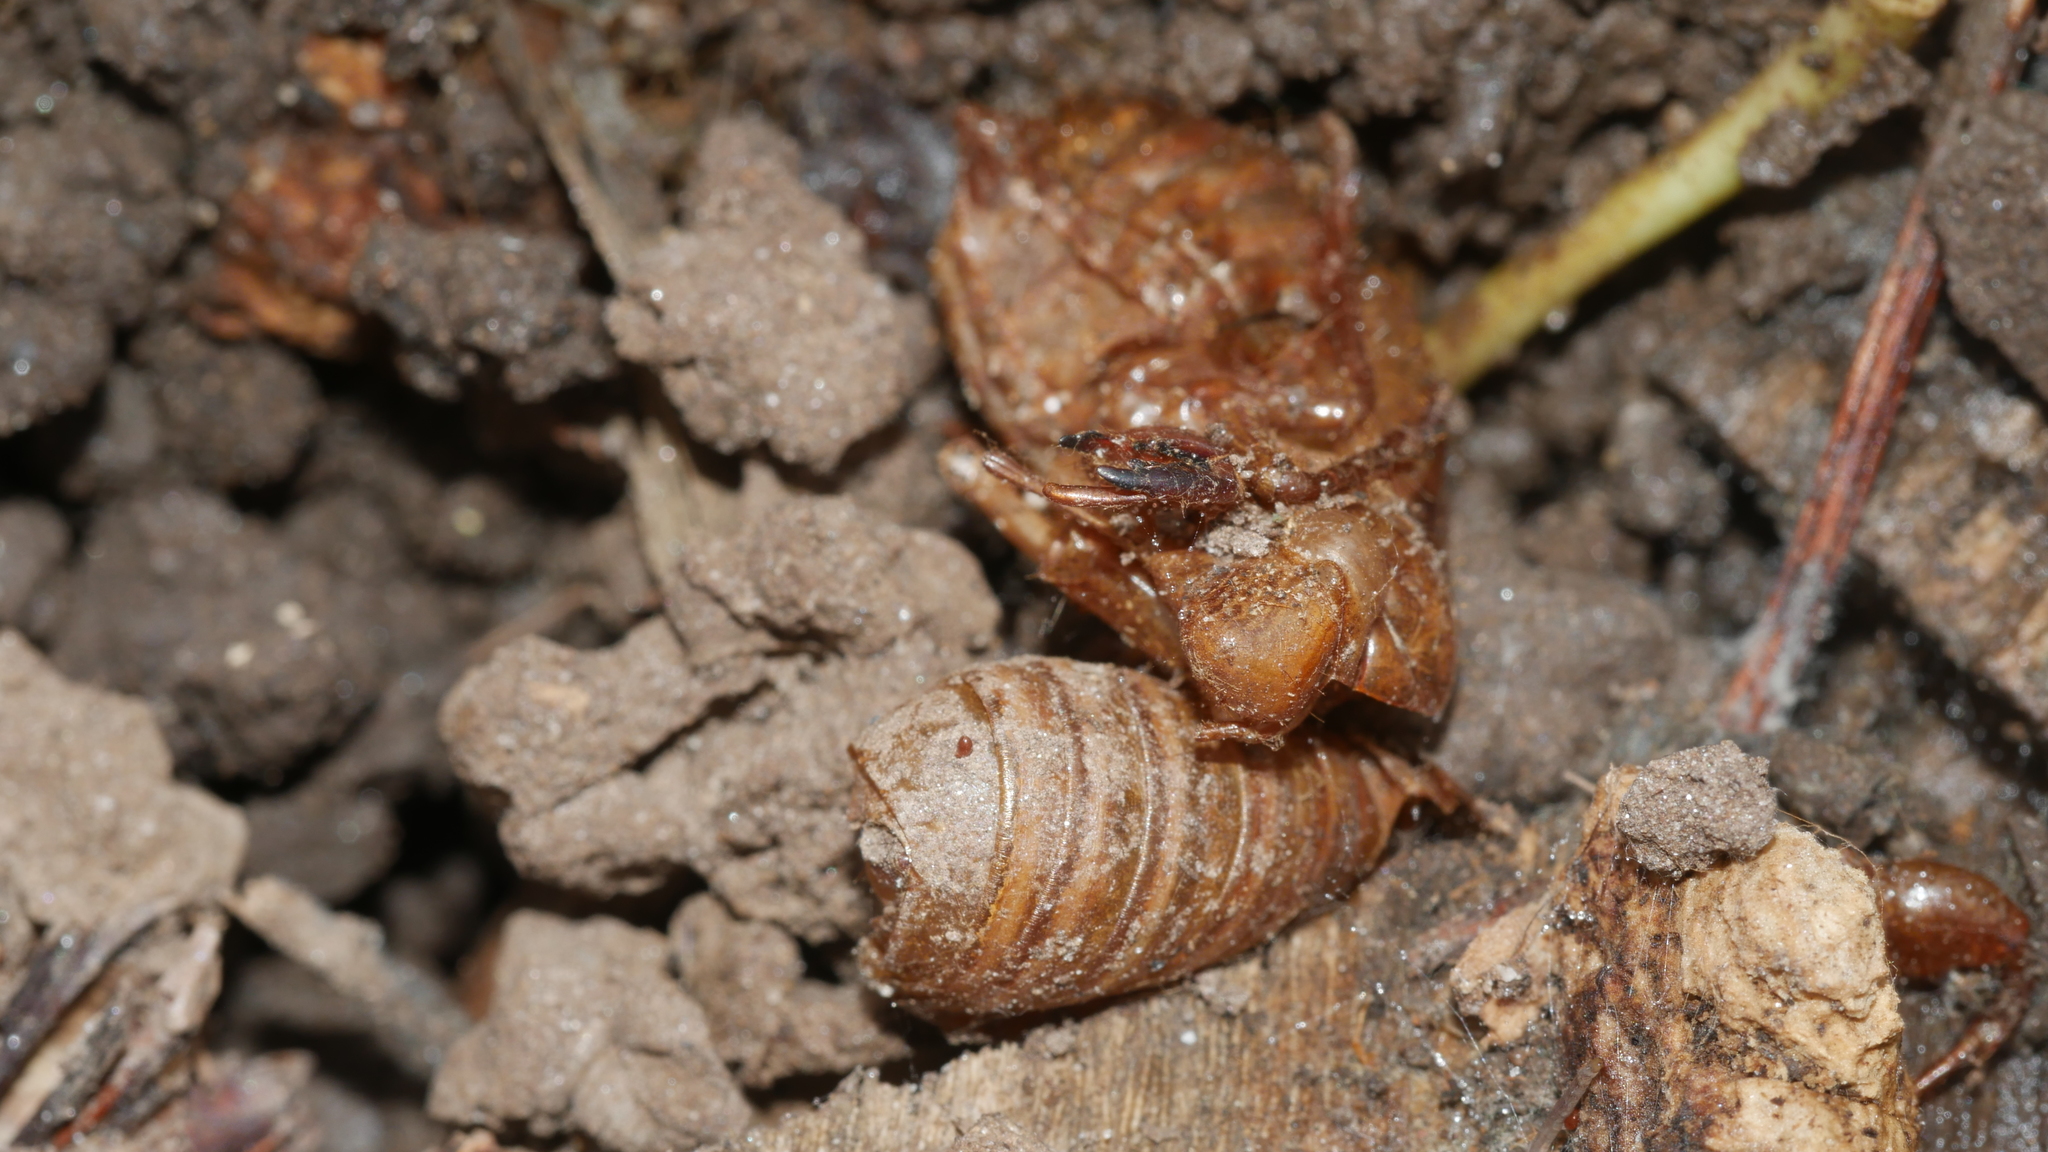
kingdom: Animalia
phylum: Arthropoda
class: Insecta
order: Hemiptera
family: Cicadidae
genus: Magicicada
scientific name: Magicicada
